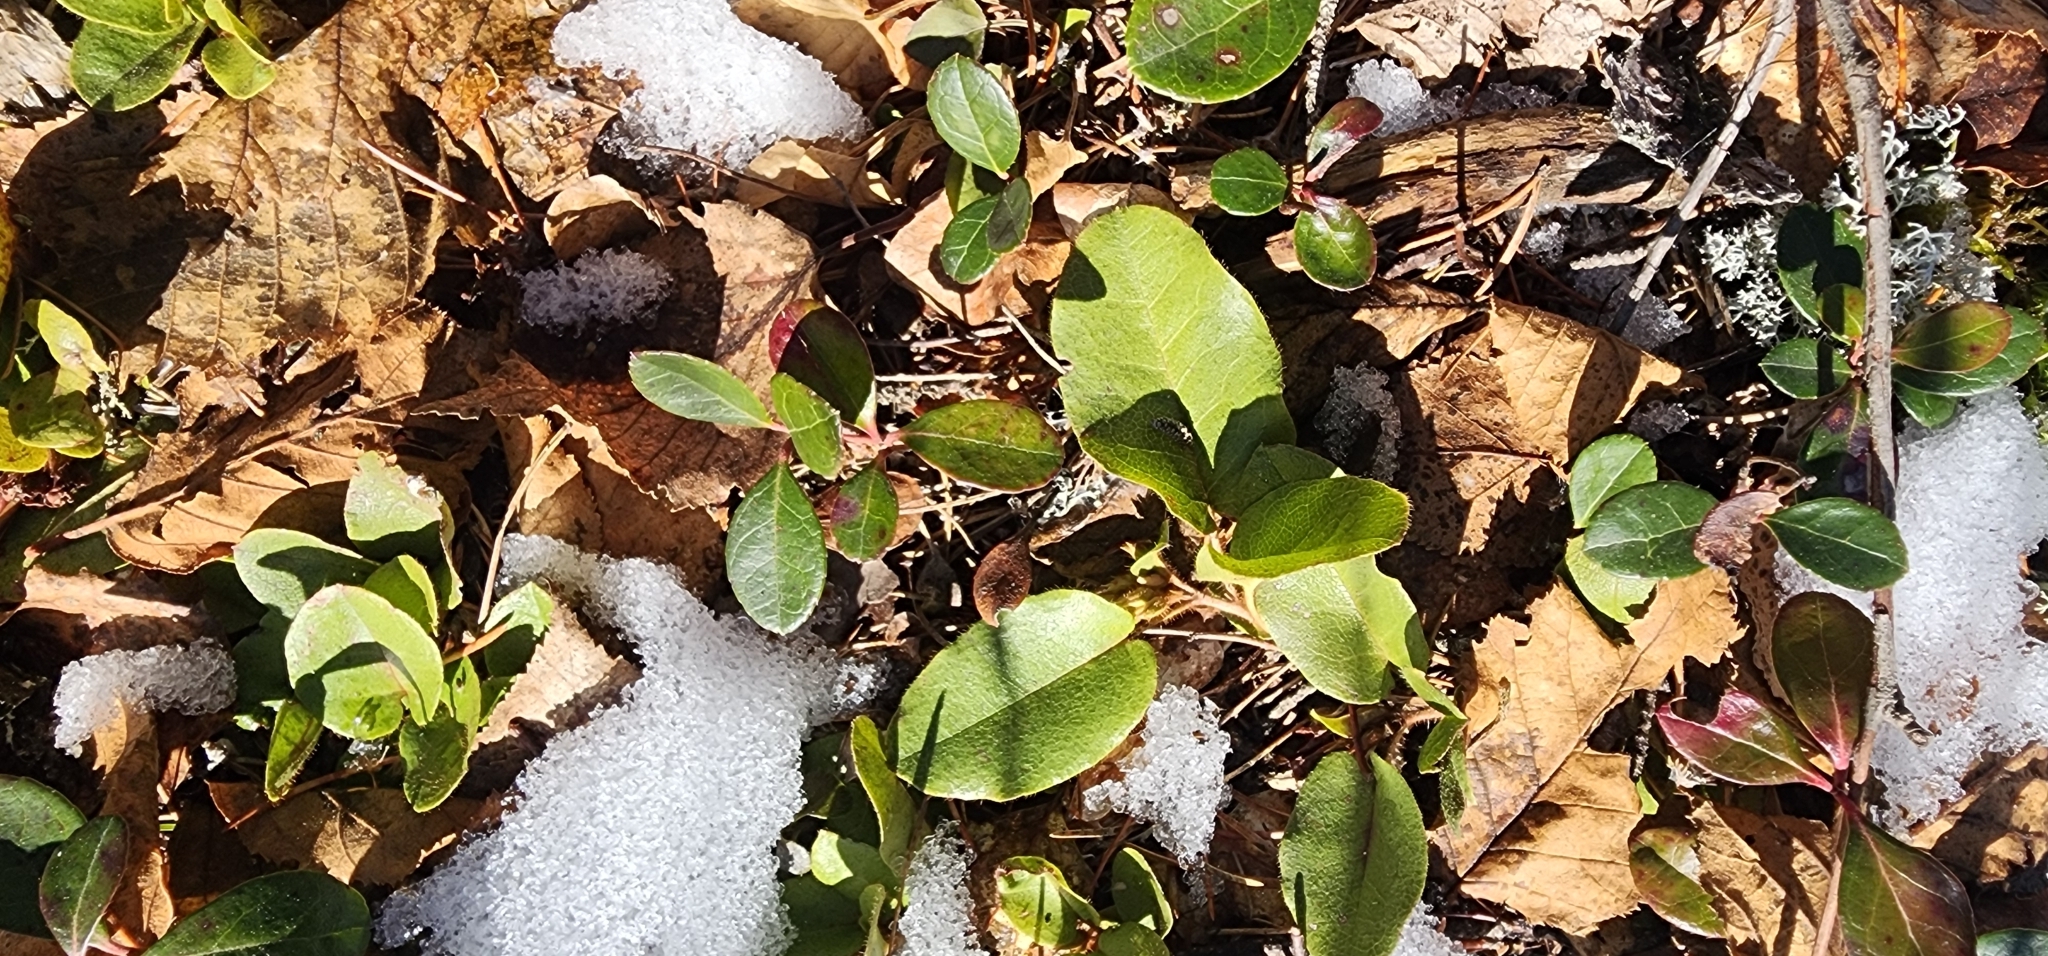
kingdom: Plantae
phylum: Tracheophyta
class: Magnoliopsida
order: Ericales
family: Ericaceae
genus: Epigaea
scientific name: Epigaea repens
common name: Gravelroot
